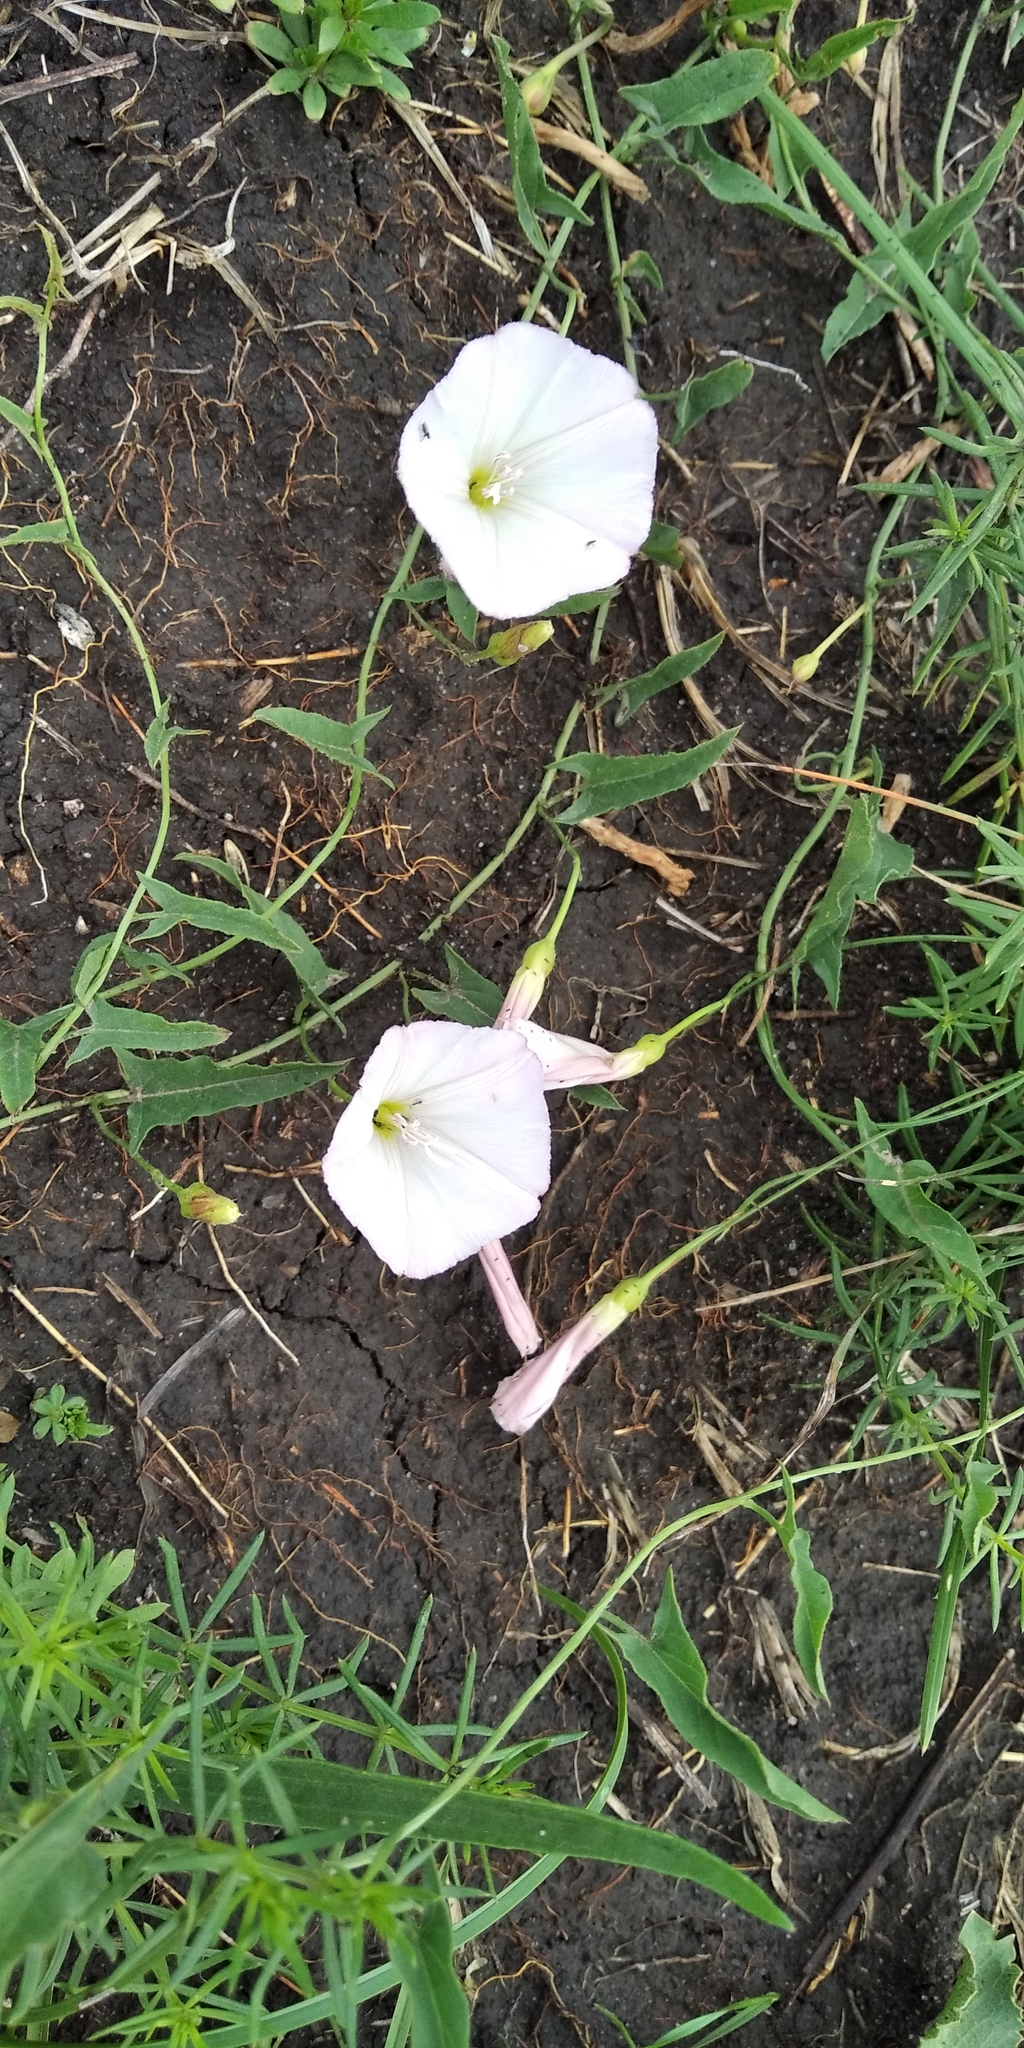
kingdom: Plantae
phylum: Tracheophyta
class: Magnoliopsida
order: Solanales
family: Convolvulaceae
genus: Convolvulus
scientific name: Convolvulus arvensis
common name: Field bindweed
